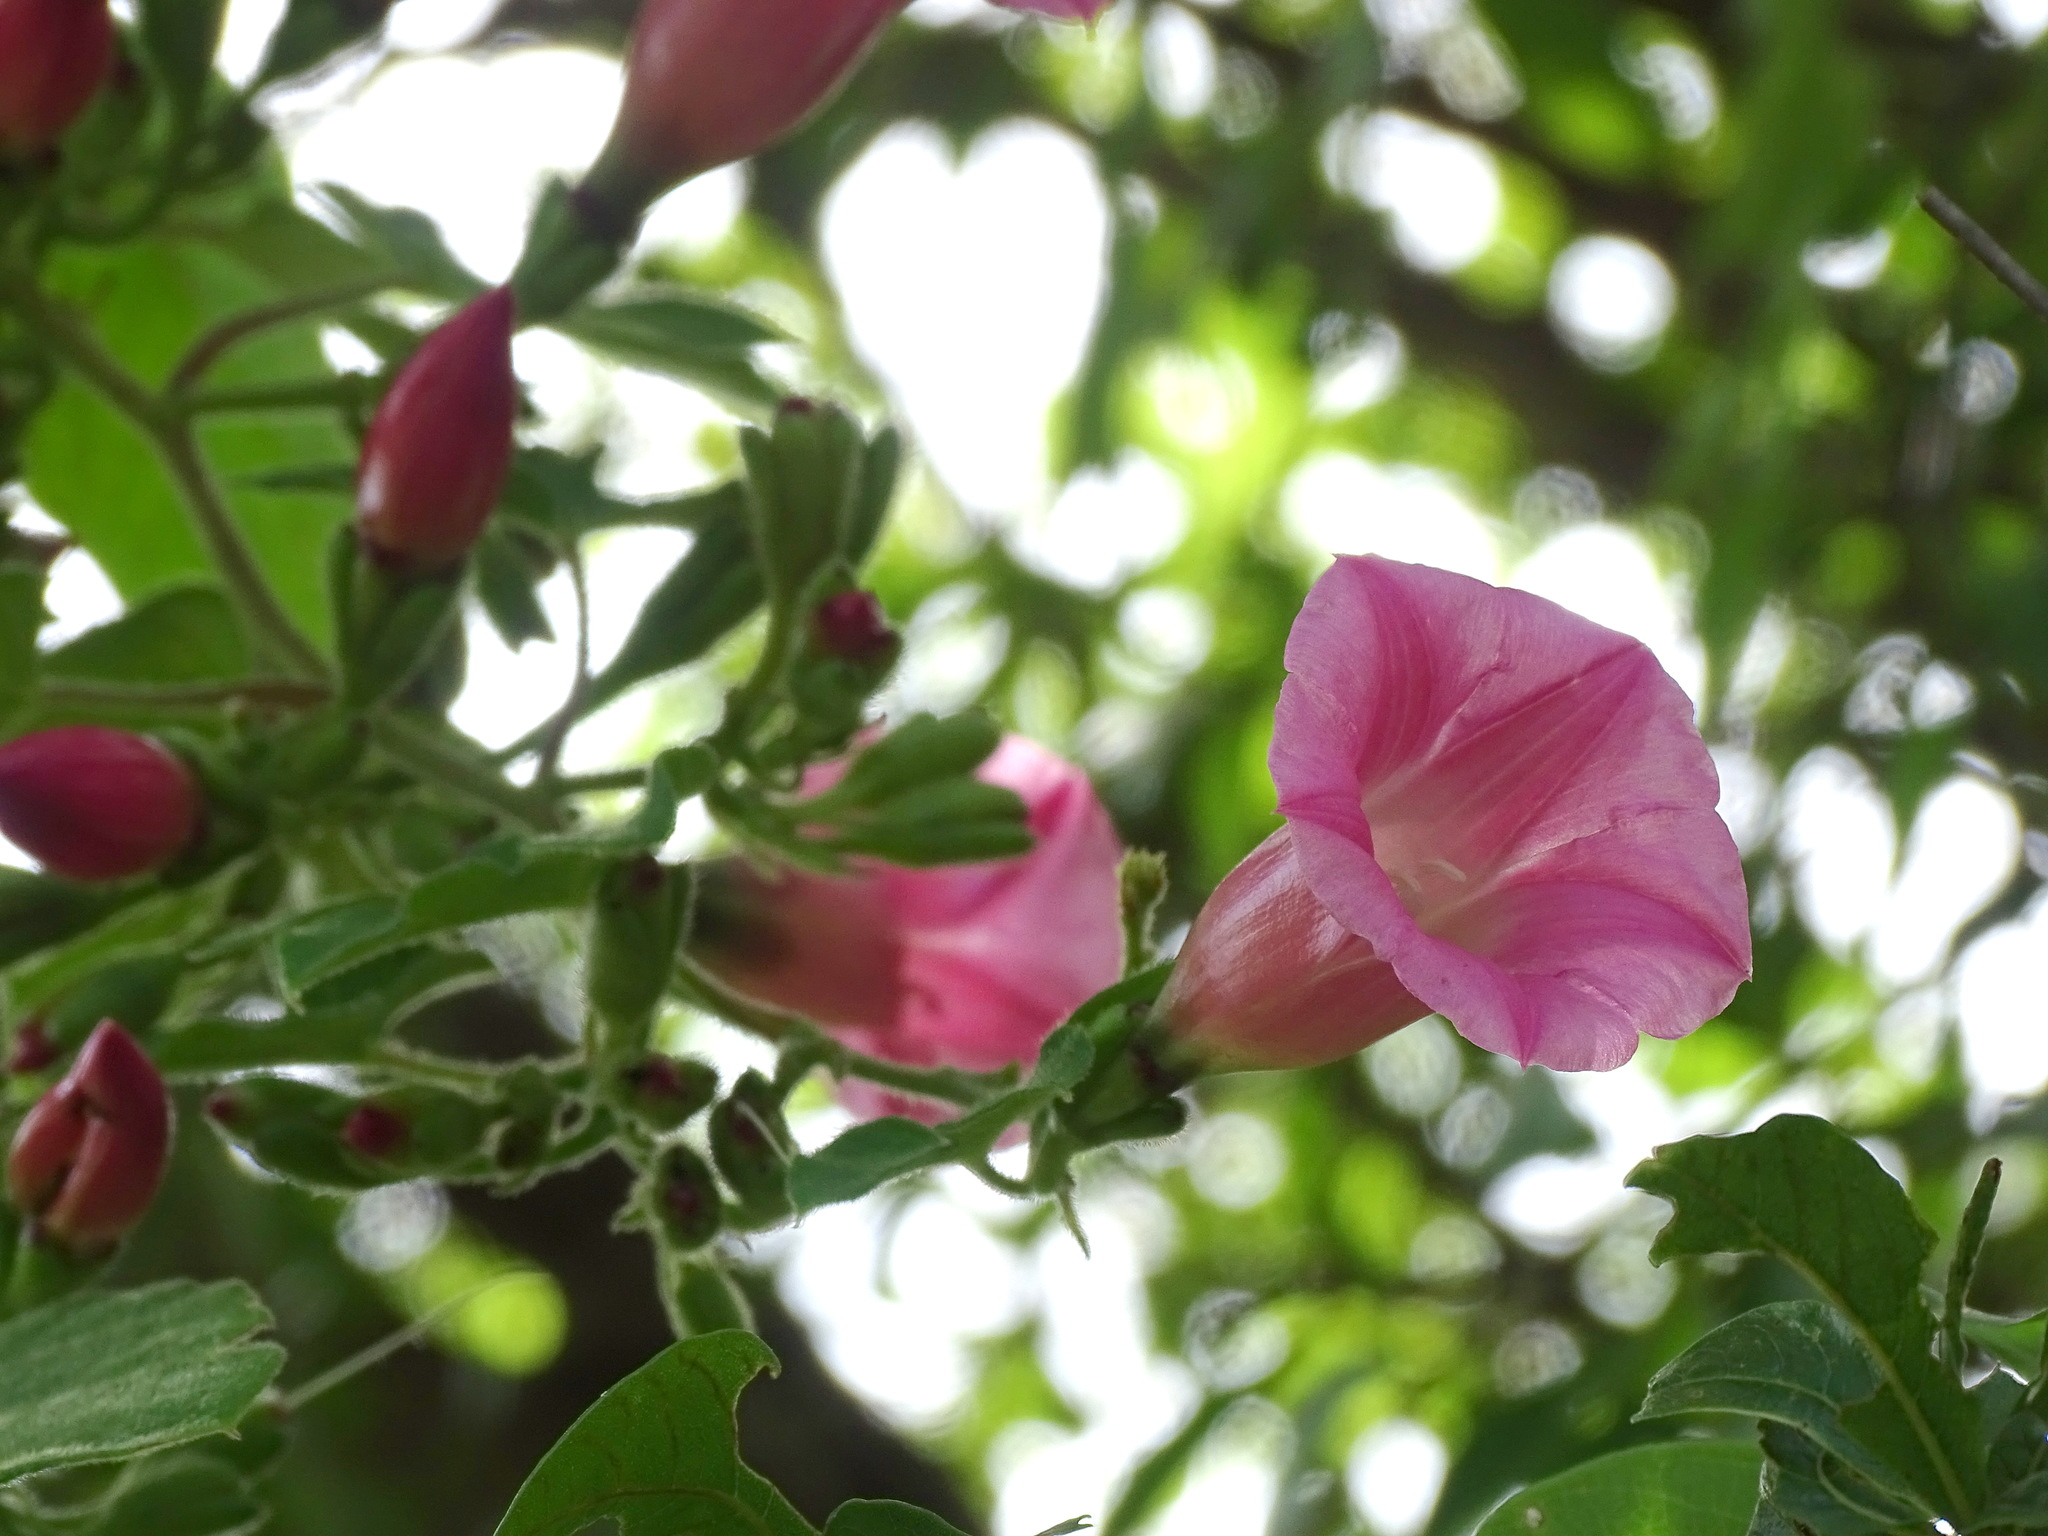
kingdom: Plantae
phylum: Tracheophyta
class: Magnoliopsida
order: Solanales
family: Convolvulaceae
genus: Ipomoea
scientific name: Ipomoea peteri
